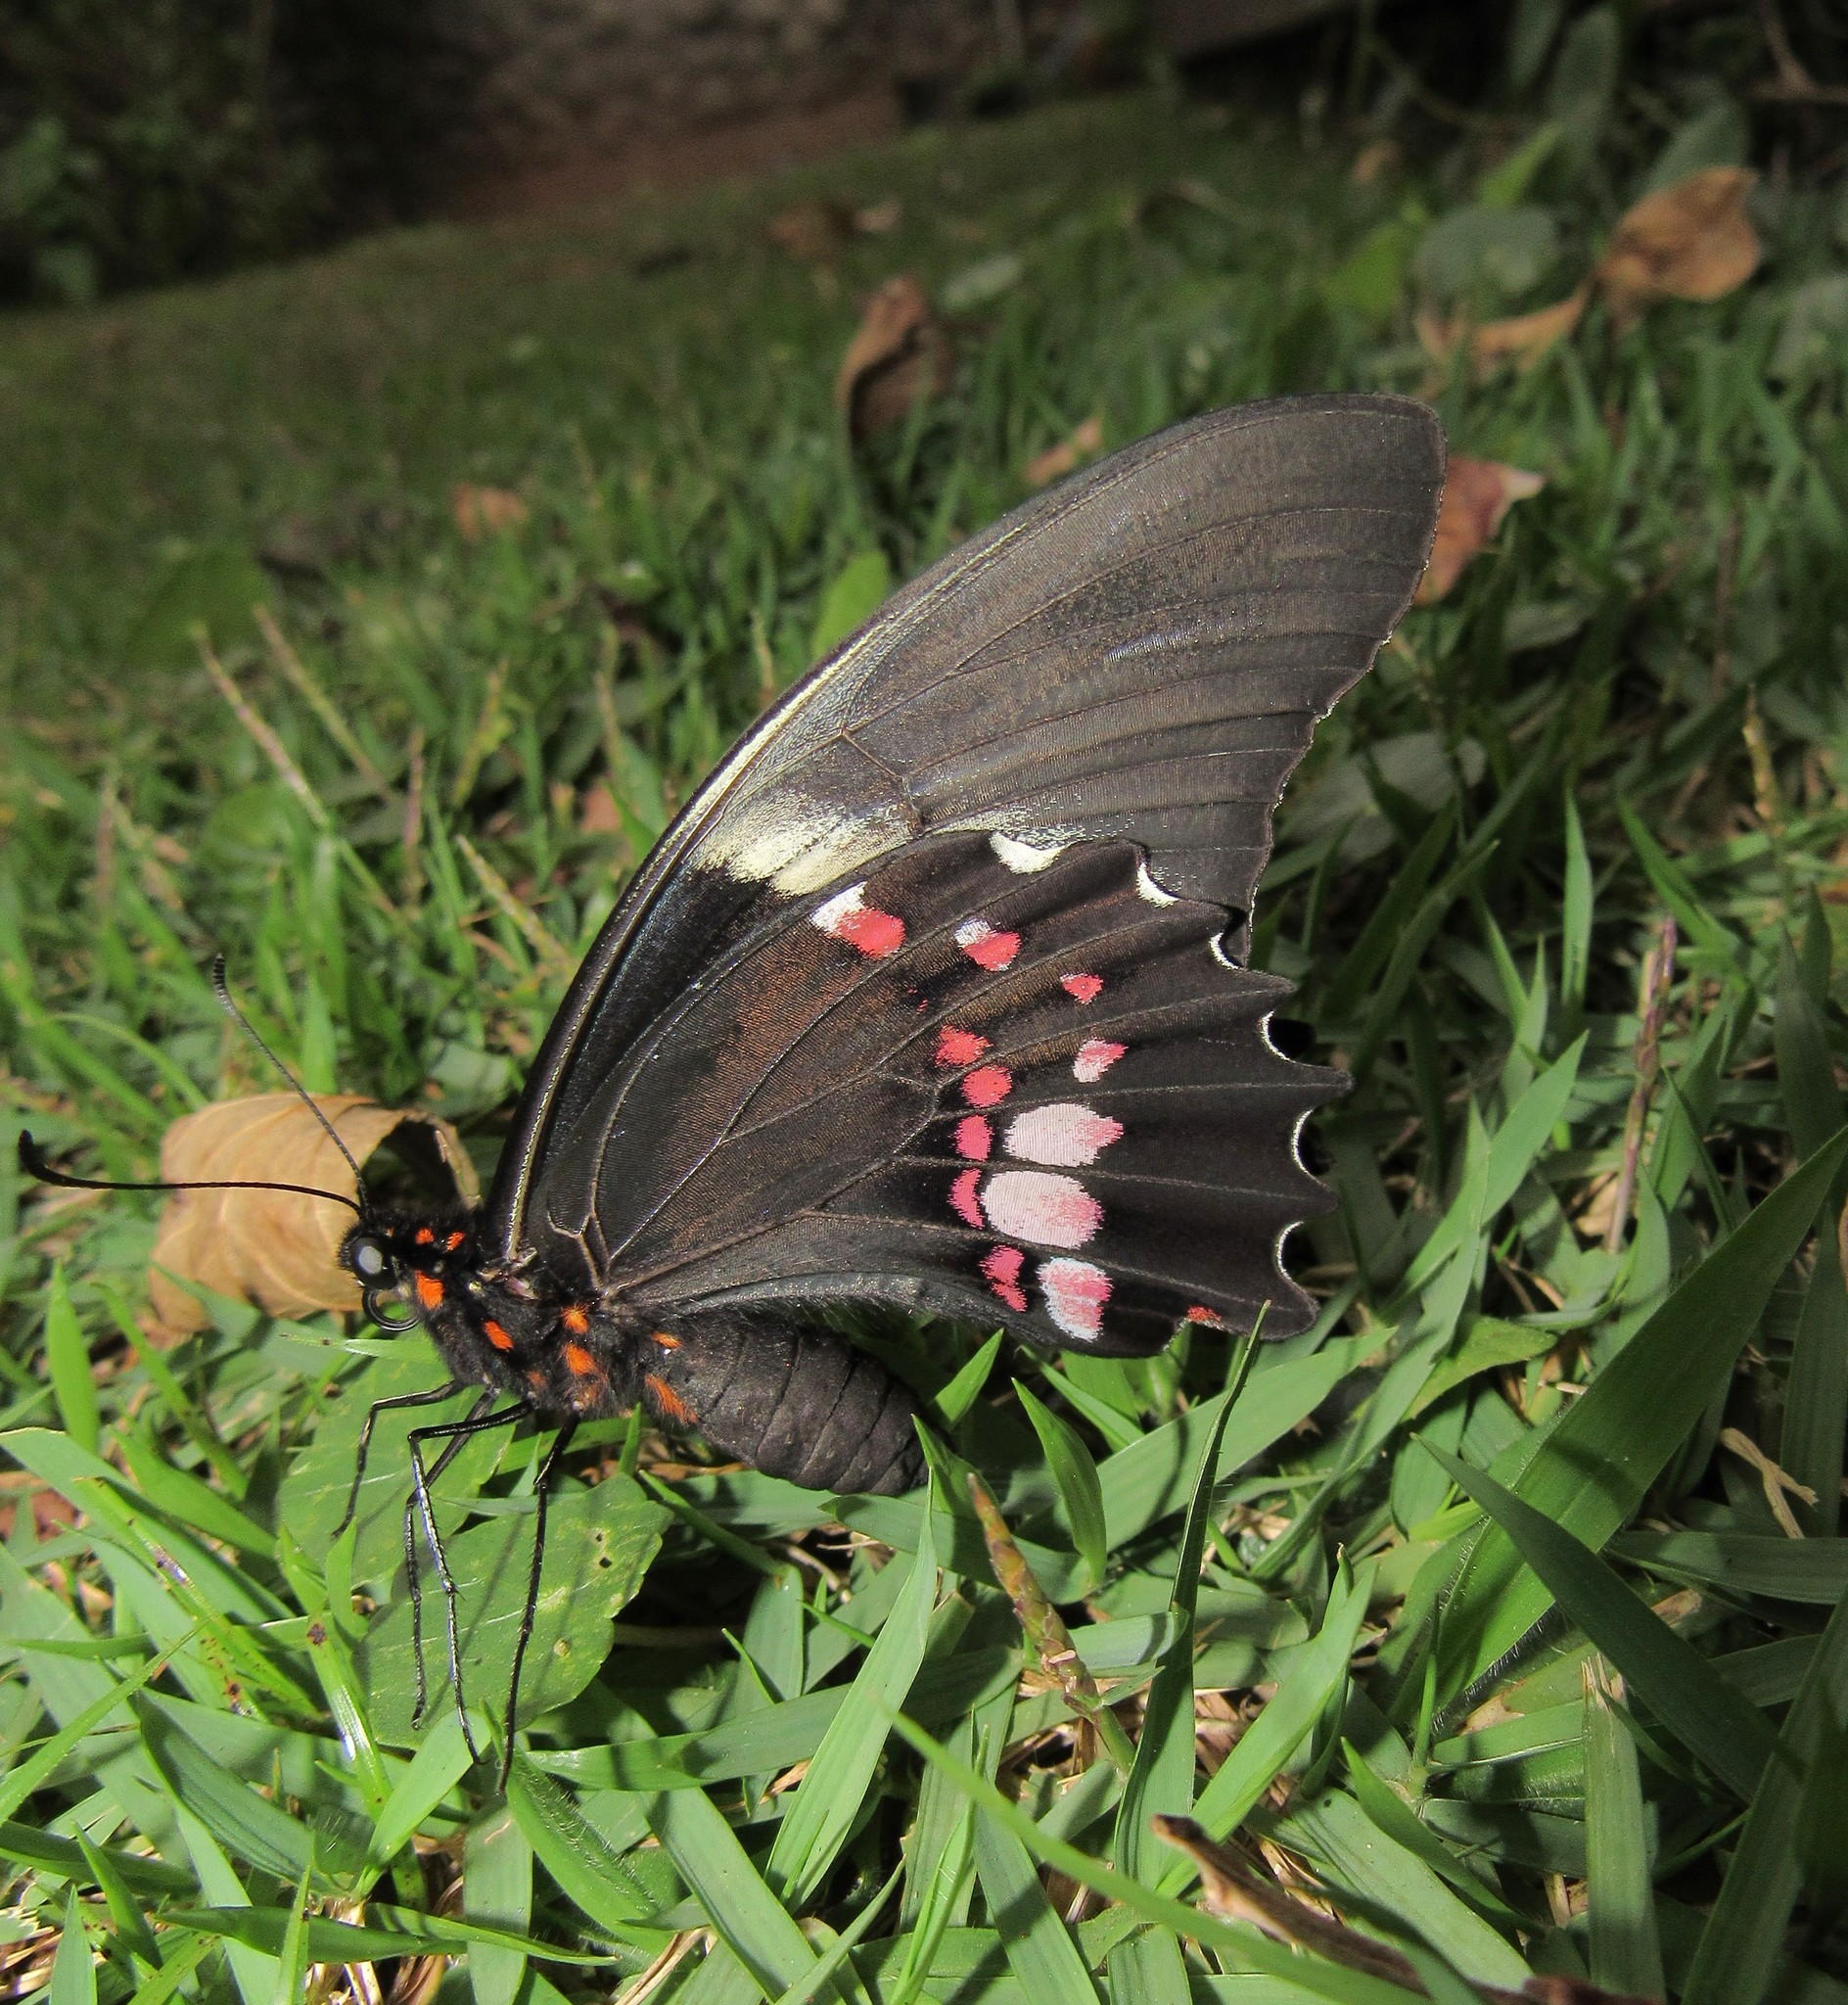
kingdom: Animalia
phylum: Arthropoda
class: Insecta
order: Lepidoptera
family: Papilionidae
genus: Papilio
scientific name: Papilio anchisiades
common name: Idaes swallowtail
